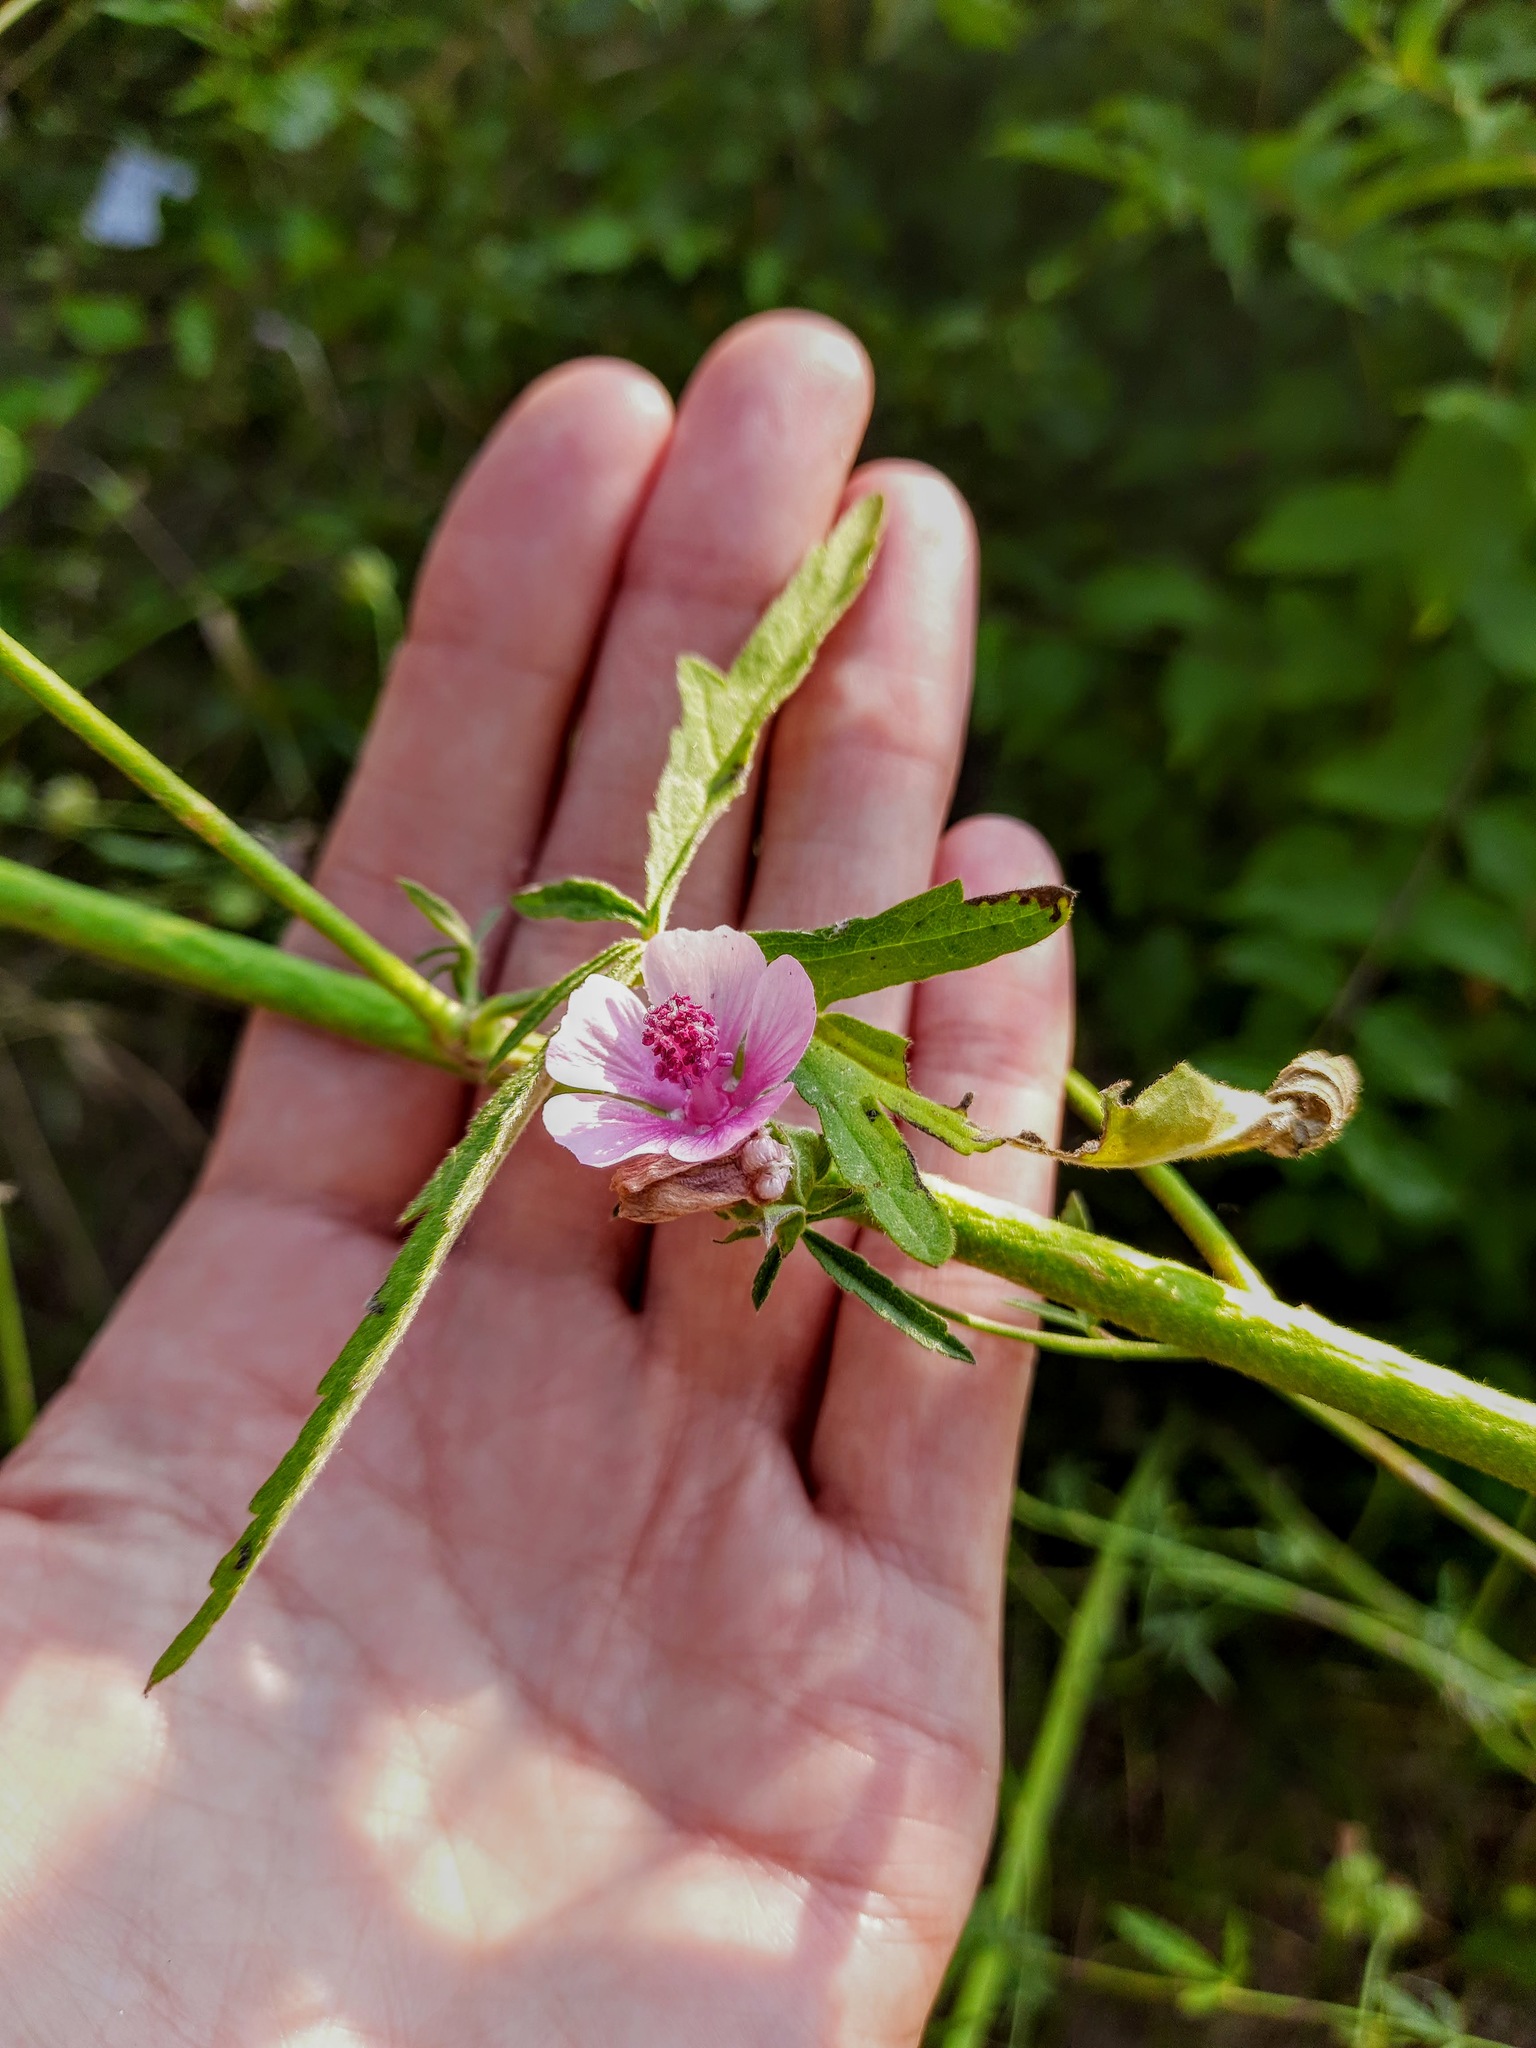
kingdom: Plantae
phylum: Tracheophyta
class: Magnoliopsida
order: Malvales
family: Malvaceae
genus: Althaea
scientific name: Althaea cannabina
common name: Palm-leaf marshmallow
